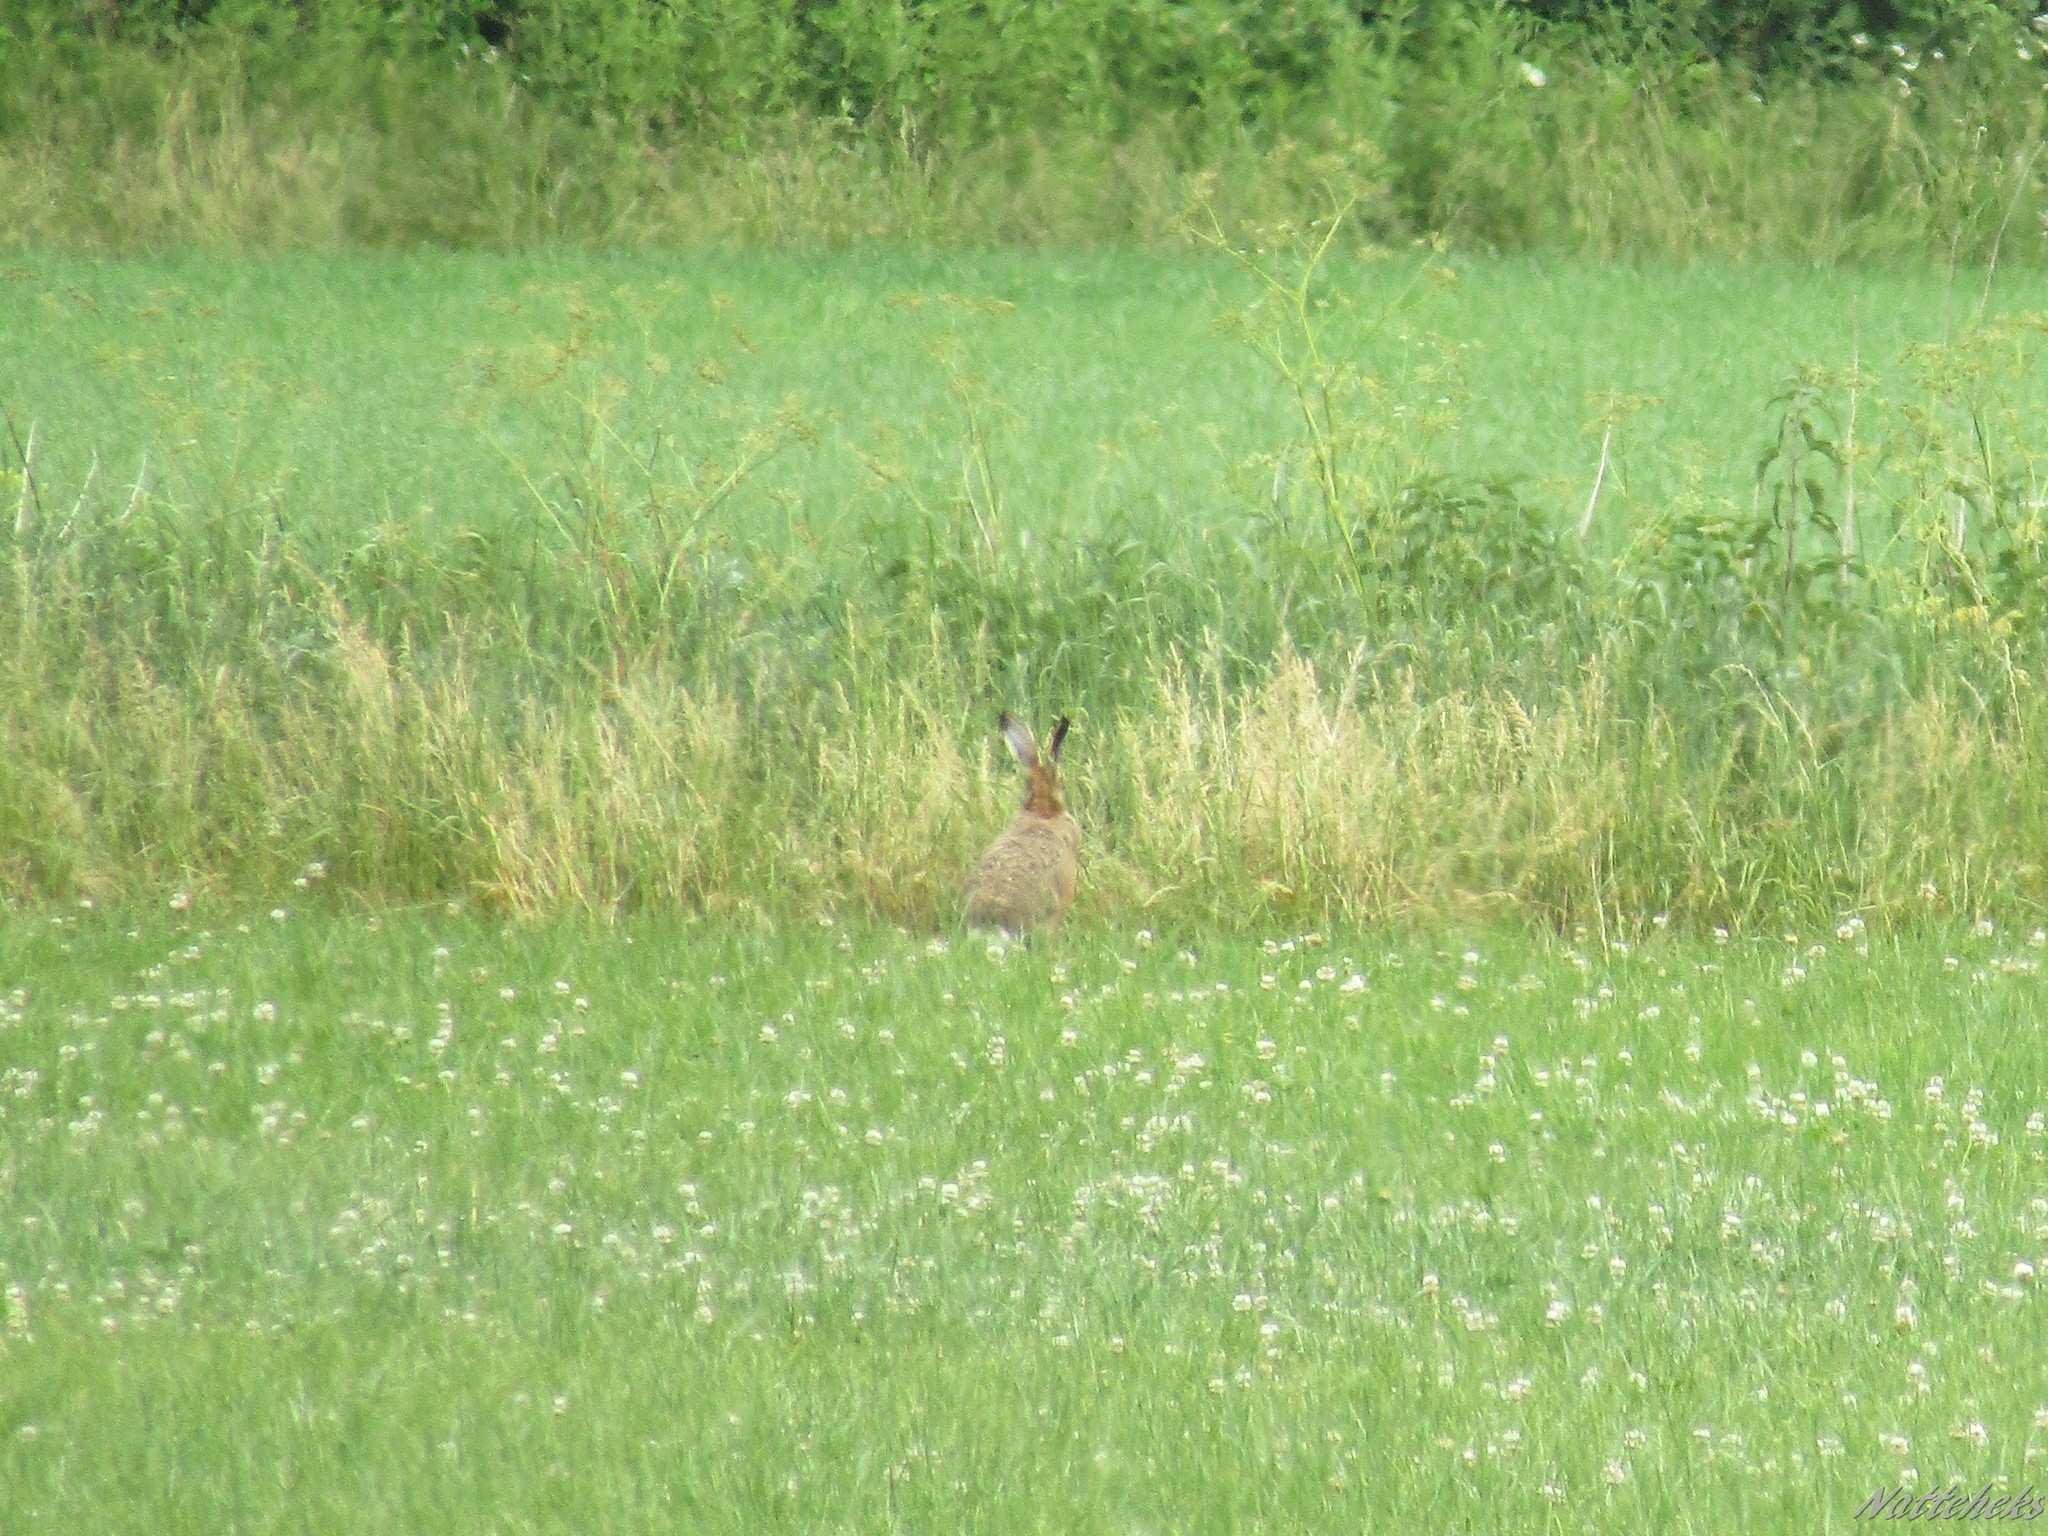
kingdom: Animalia
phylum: Chordata
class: Mammalia
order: Lagomorpha
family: Leporidae
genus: Lepus
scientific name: Lepus europaeus
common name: European hare
